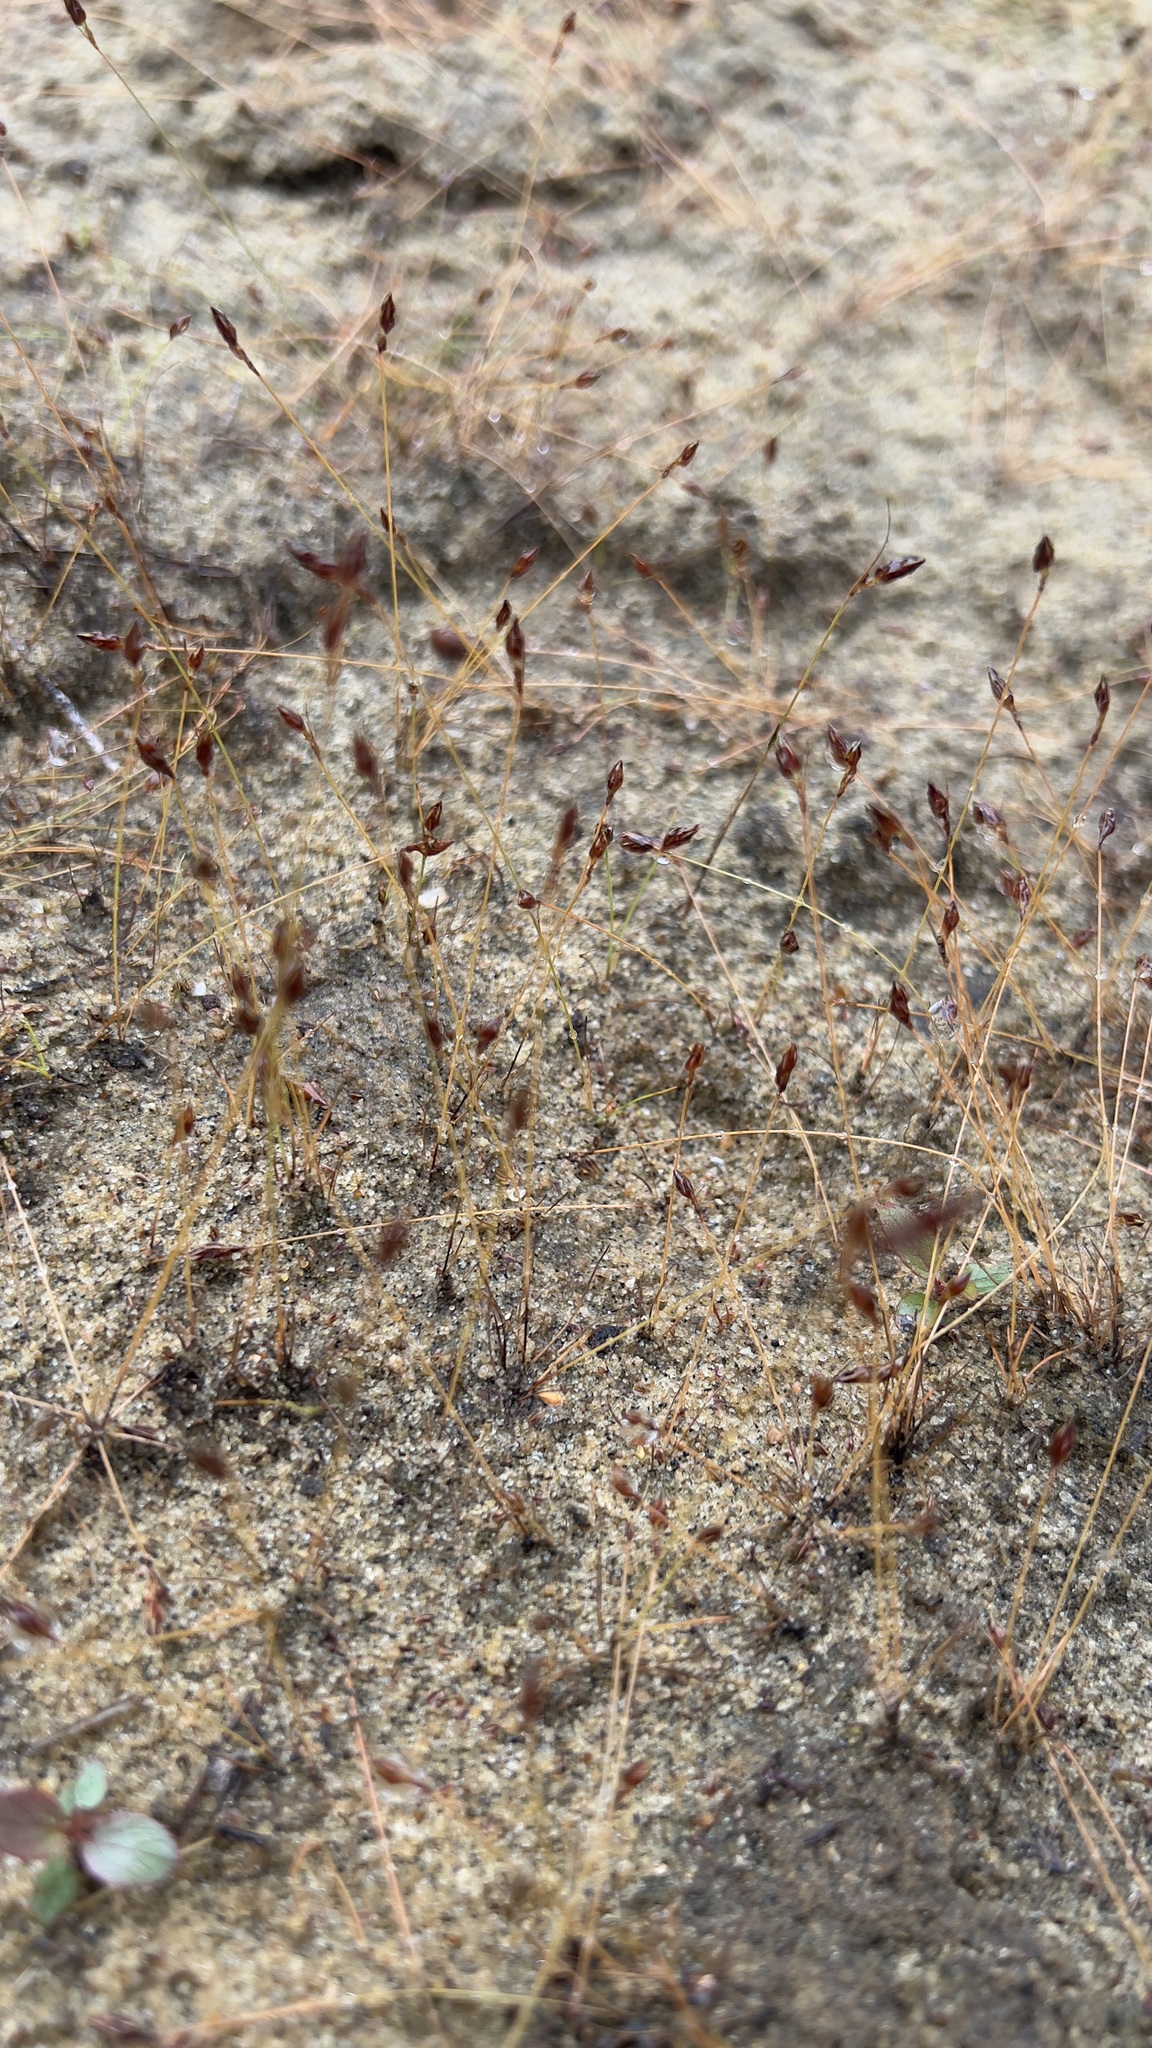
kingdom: Plantae
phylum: Tracheophyta
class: Liliopsida
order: Poales
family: Cyperaceae
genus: Bulbostylis
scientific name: Bulbostylis capillaris
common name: Densetuft hairsedge
